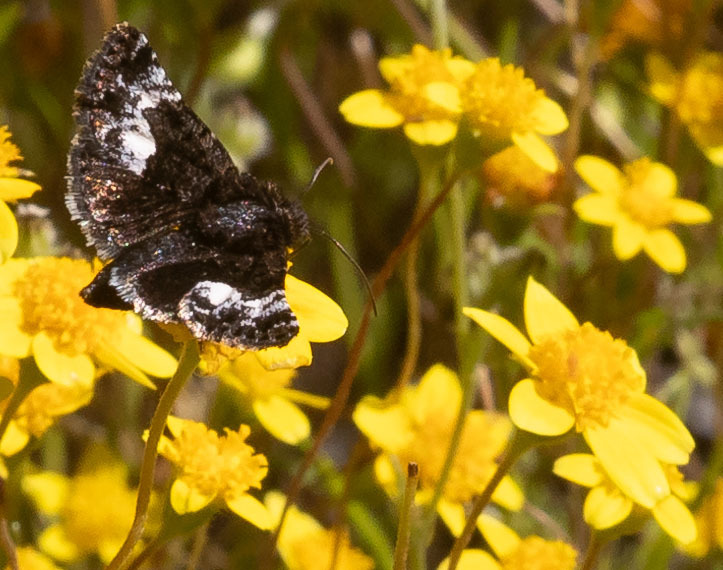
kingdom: Animalia
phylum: Arthropoda
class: Insecta
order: Lepidoptera
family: Noctuidae
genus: Stylopoda
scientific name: Stylopoda cephalica
